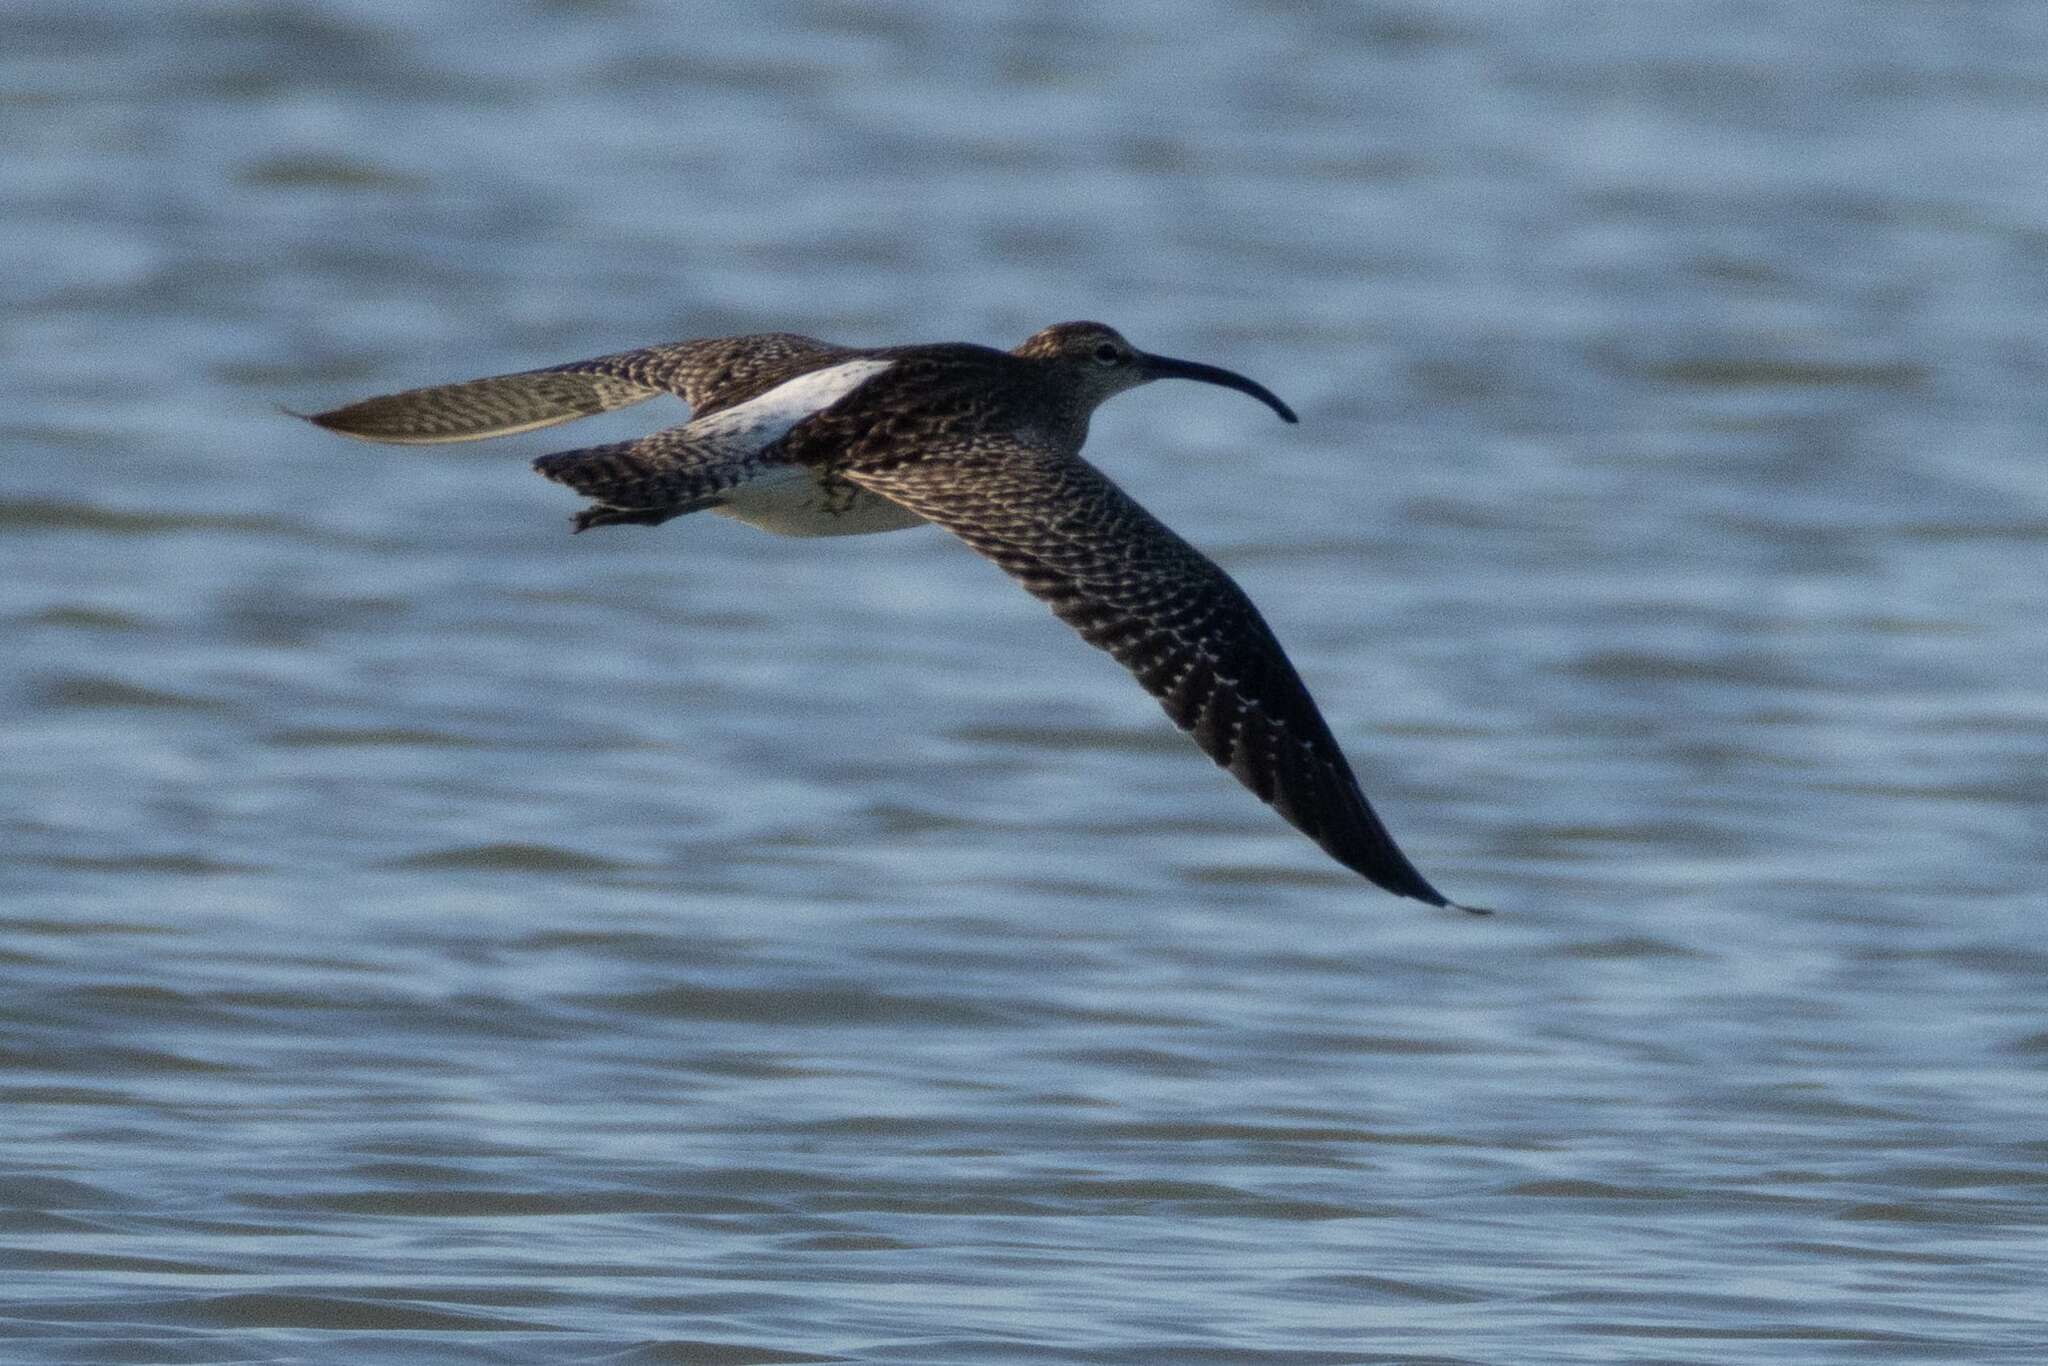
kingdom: Animalia
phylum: Chordata
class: Aves
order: Charadriiformes
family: Scolopacidae
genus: Numenius
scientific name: Numenius phaeopus
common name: Whimbrel
